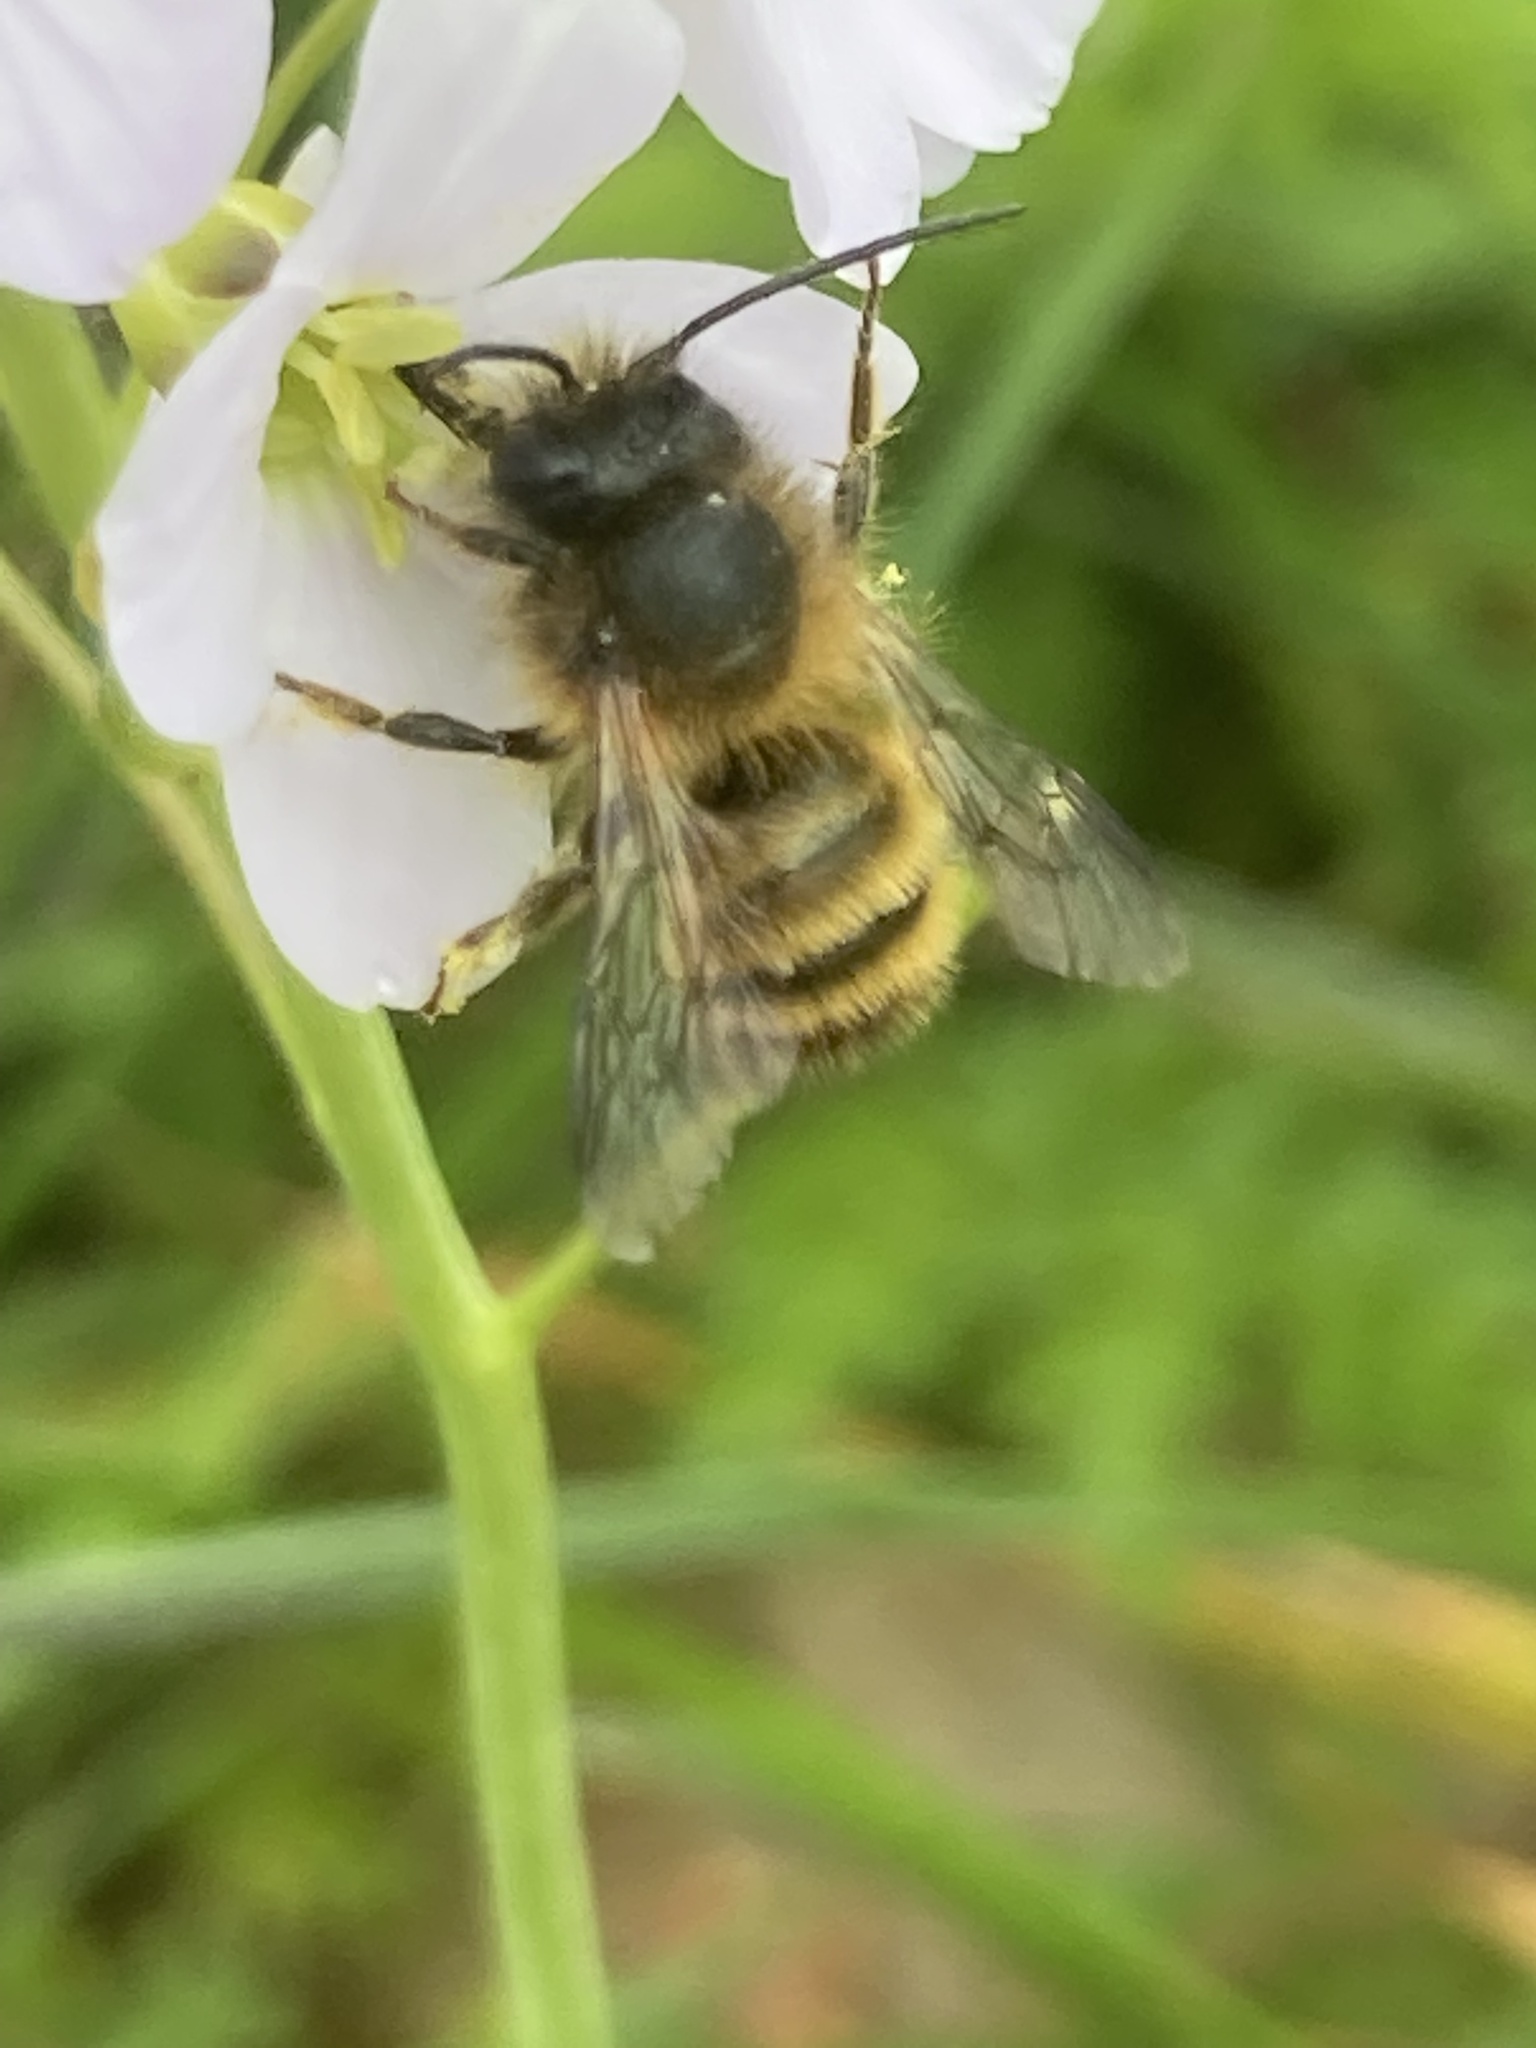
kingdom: Animalia
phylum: Arthropoda
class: Insecta
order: Hymenoptera
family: Megachilidae
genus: Osmia
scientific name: Osmia bicornis
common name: Red mason bee
